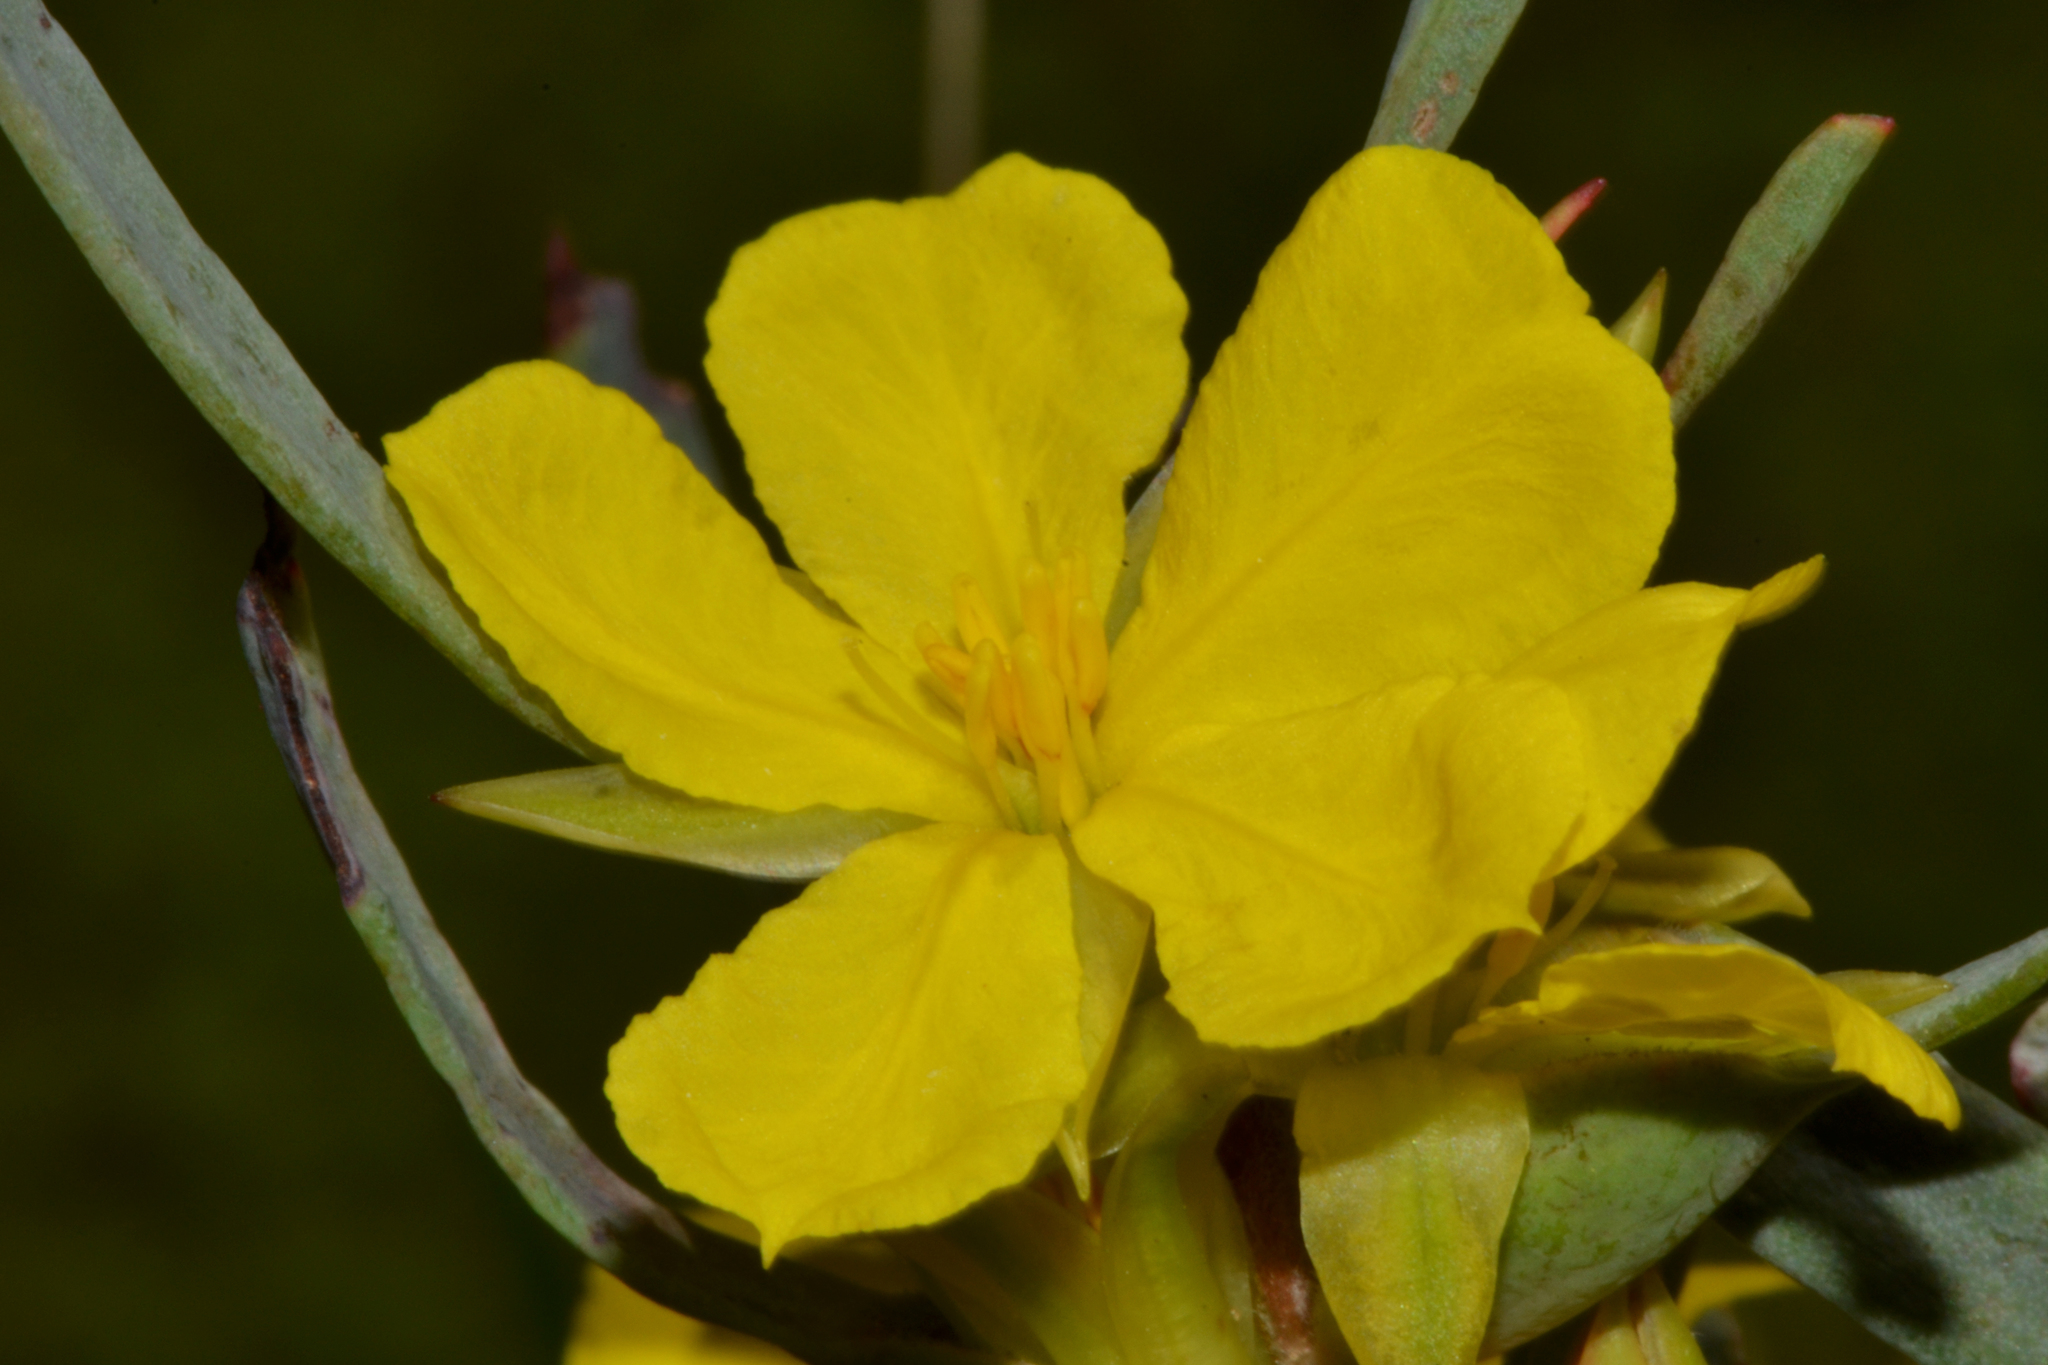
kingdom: Plantae
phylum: Tracheophyta
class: Magnoliopsida
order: Dilleniales
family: Dilleniaceae
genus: Hibbertia
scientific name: Hibbertia subvaginata
